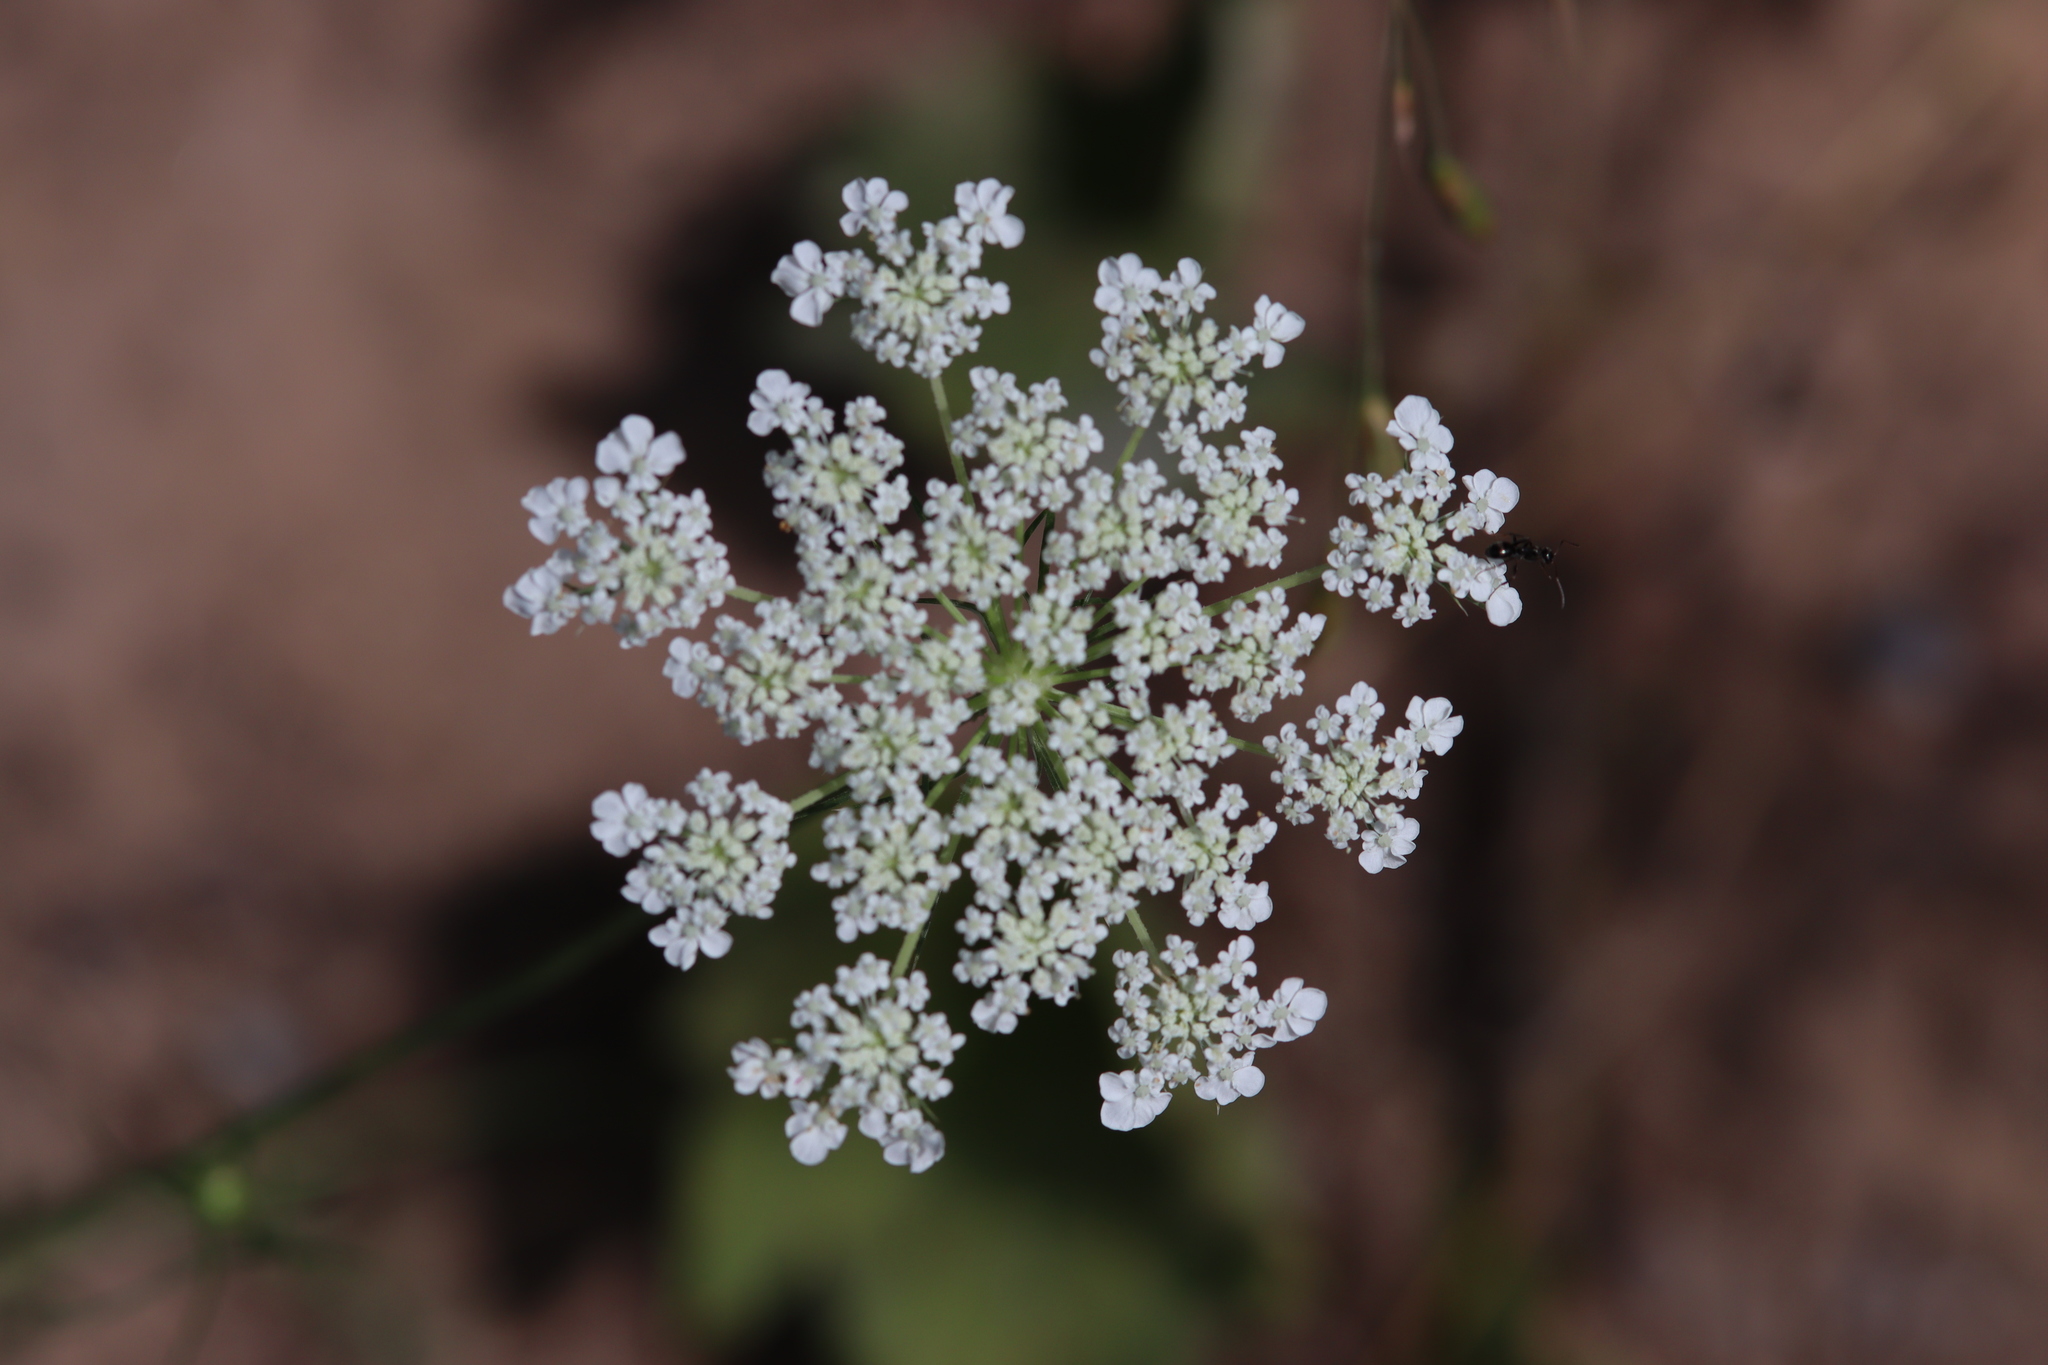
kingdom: Plantae
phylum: Tracheophyta
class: Magnoliopsida
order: Apiales
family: Apiaceae
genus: Daucus
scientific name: Daucus carota
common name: Wild carrot
